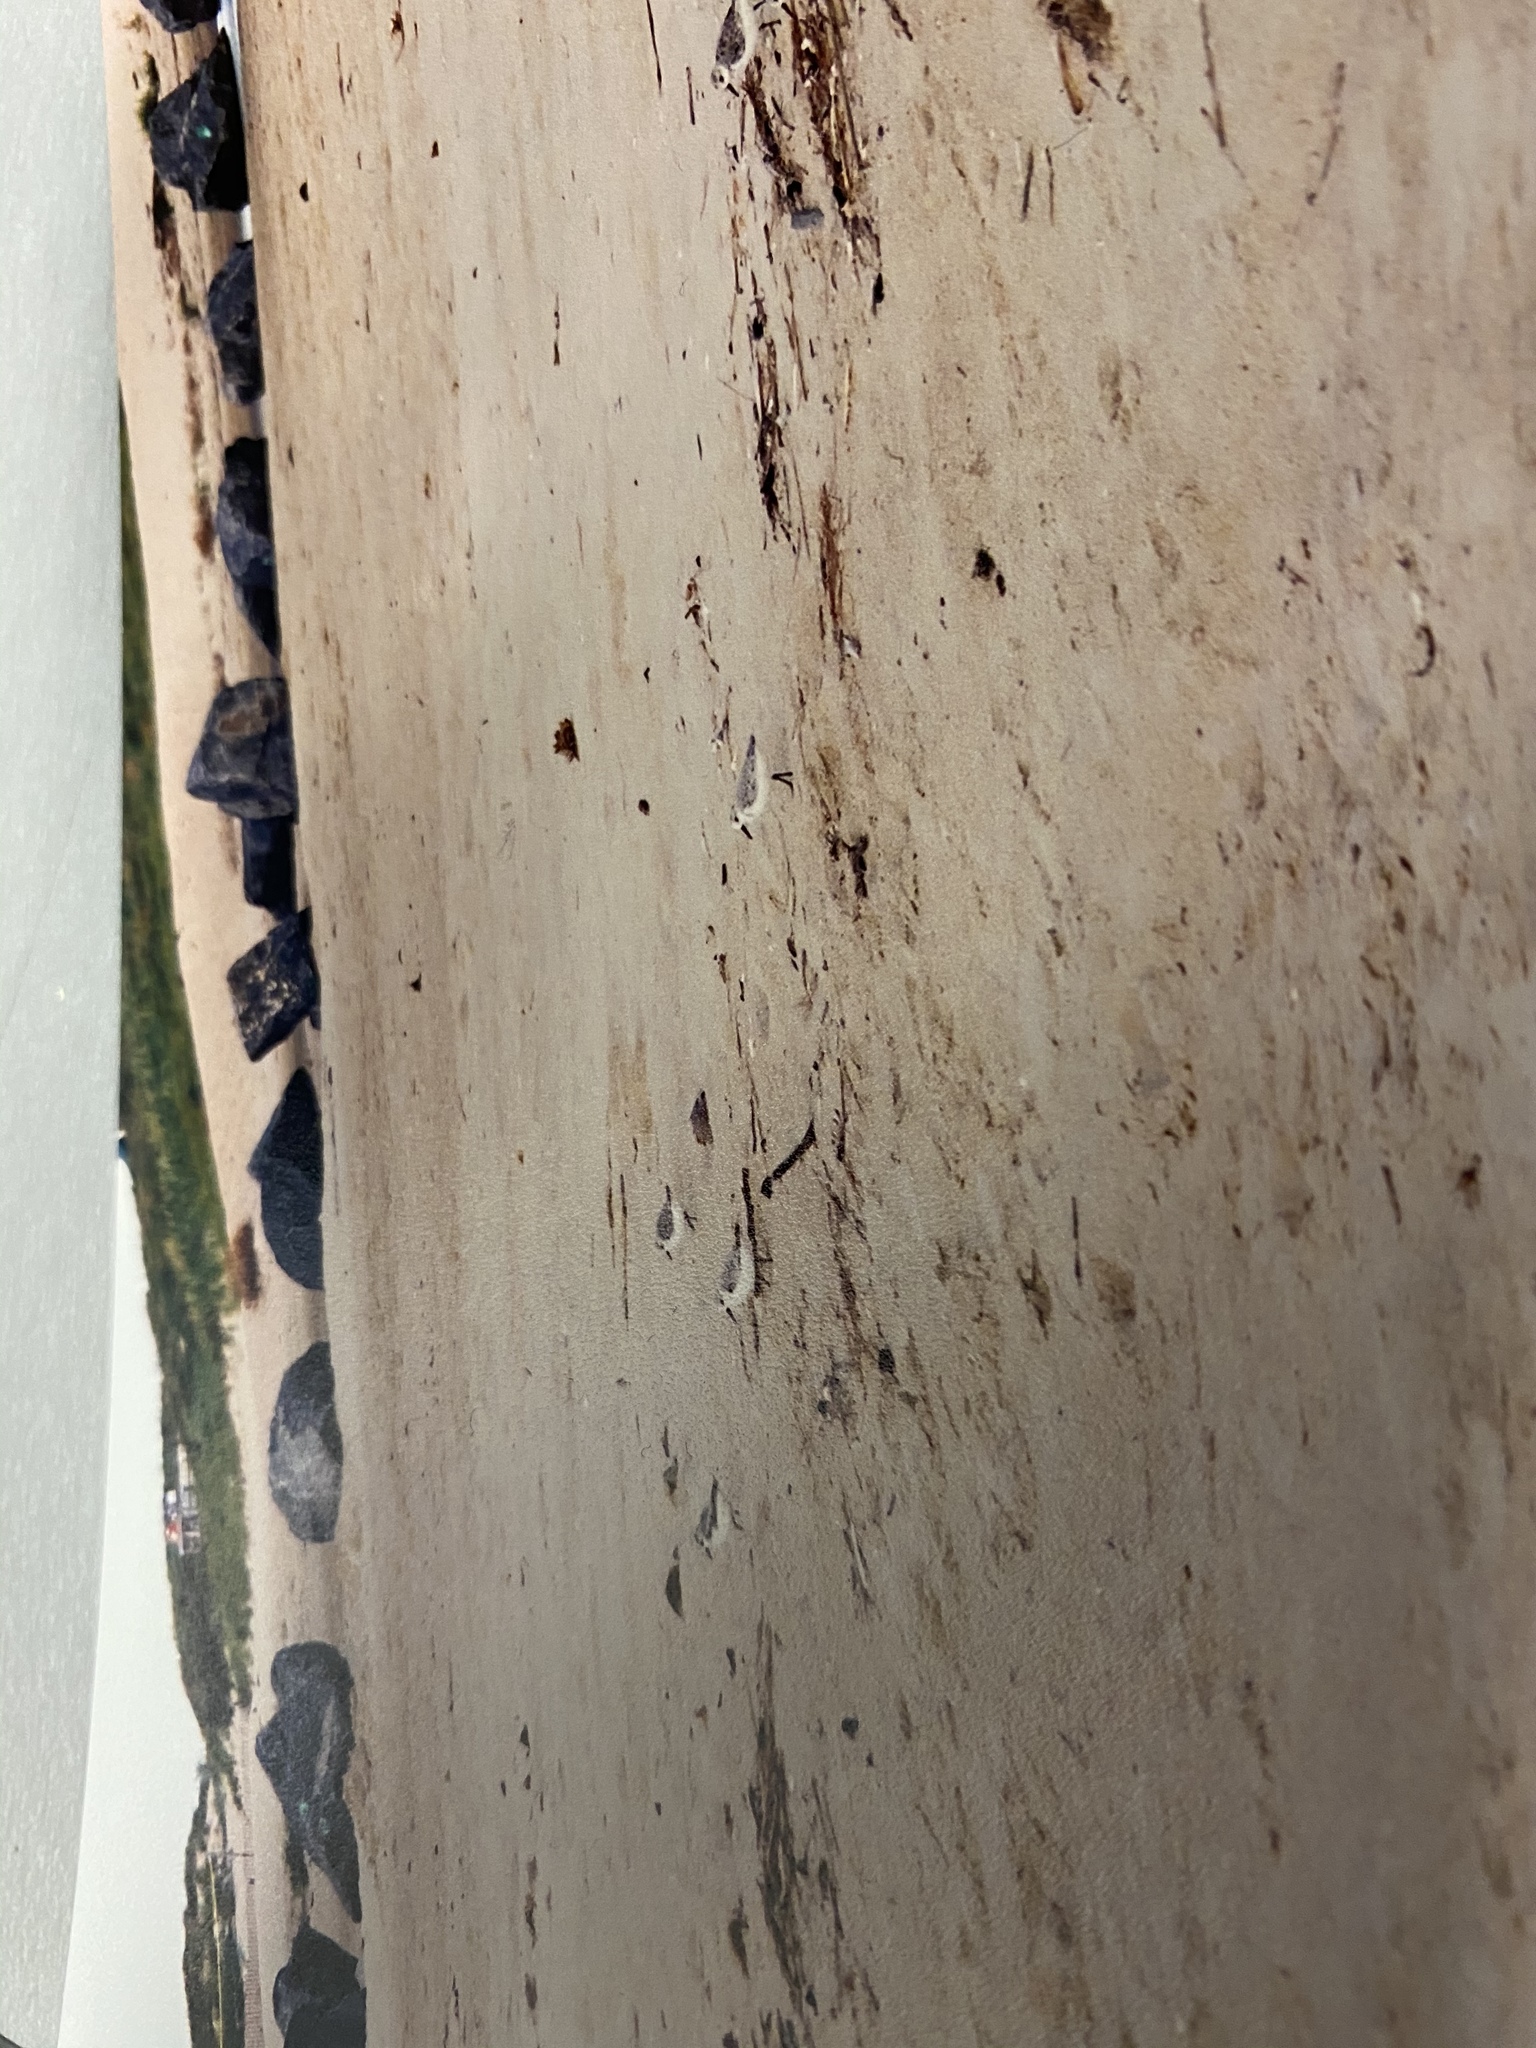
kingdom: Animalia
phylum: Chordata
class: Aves
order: Charadriiformes
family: Scolopacidae
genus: Calidris
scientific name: Calidris alba
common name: Sanderling
